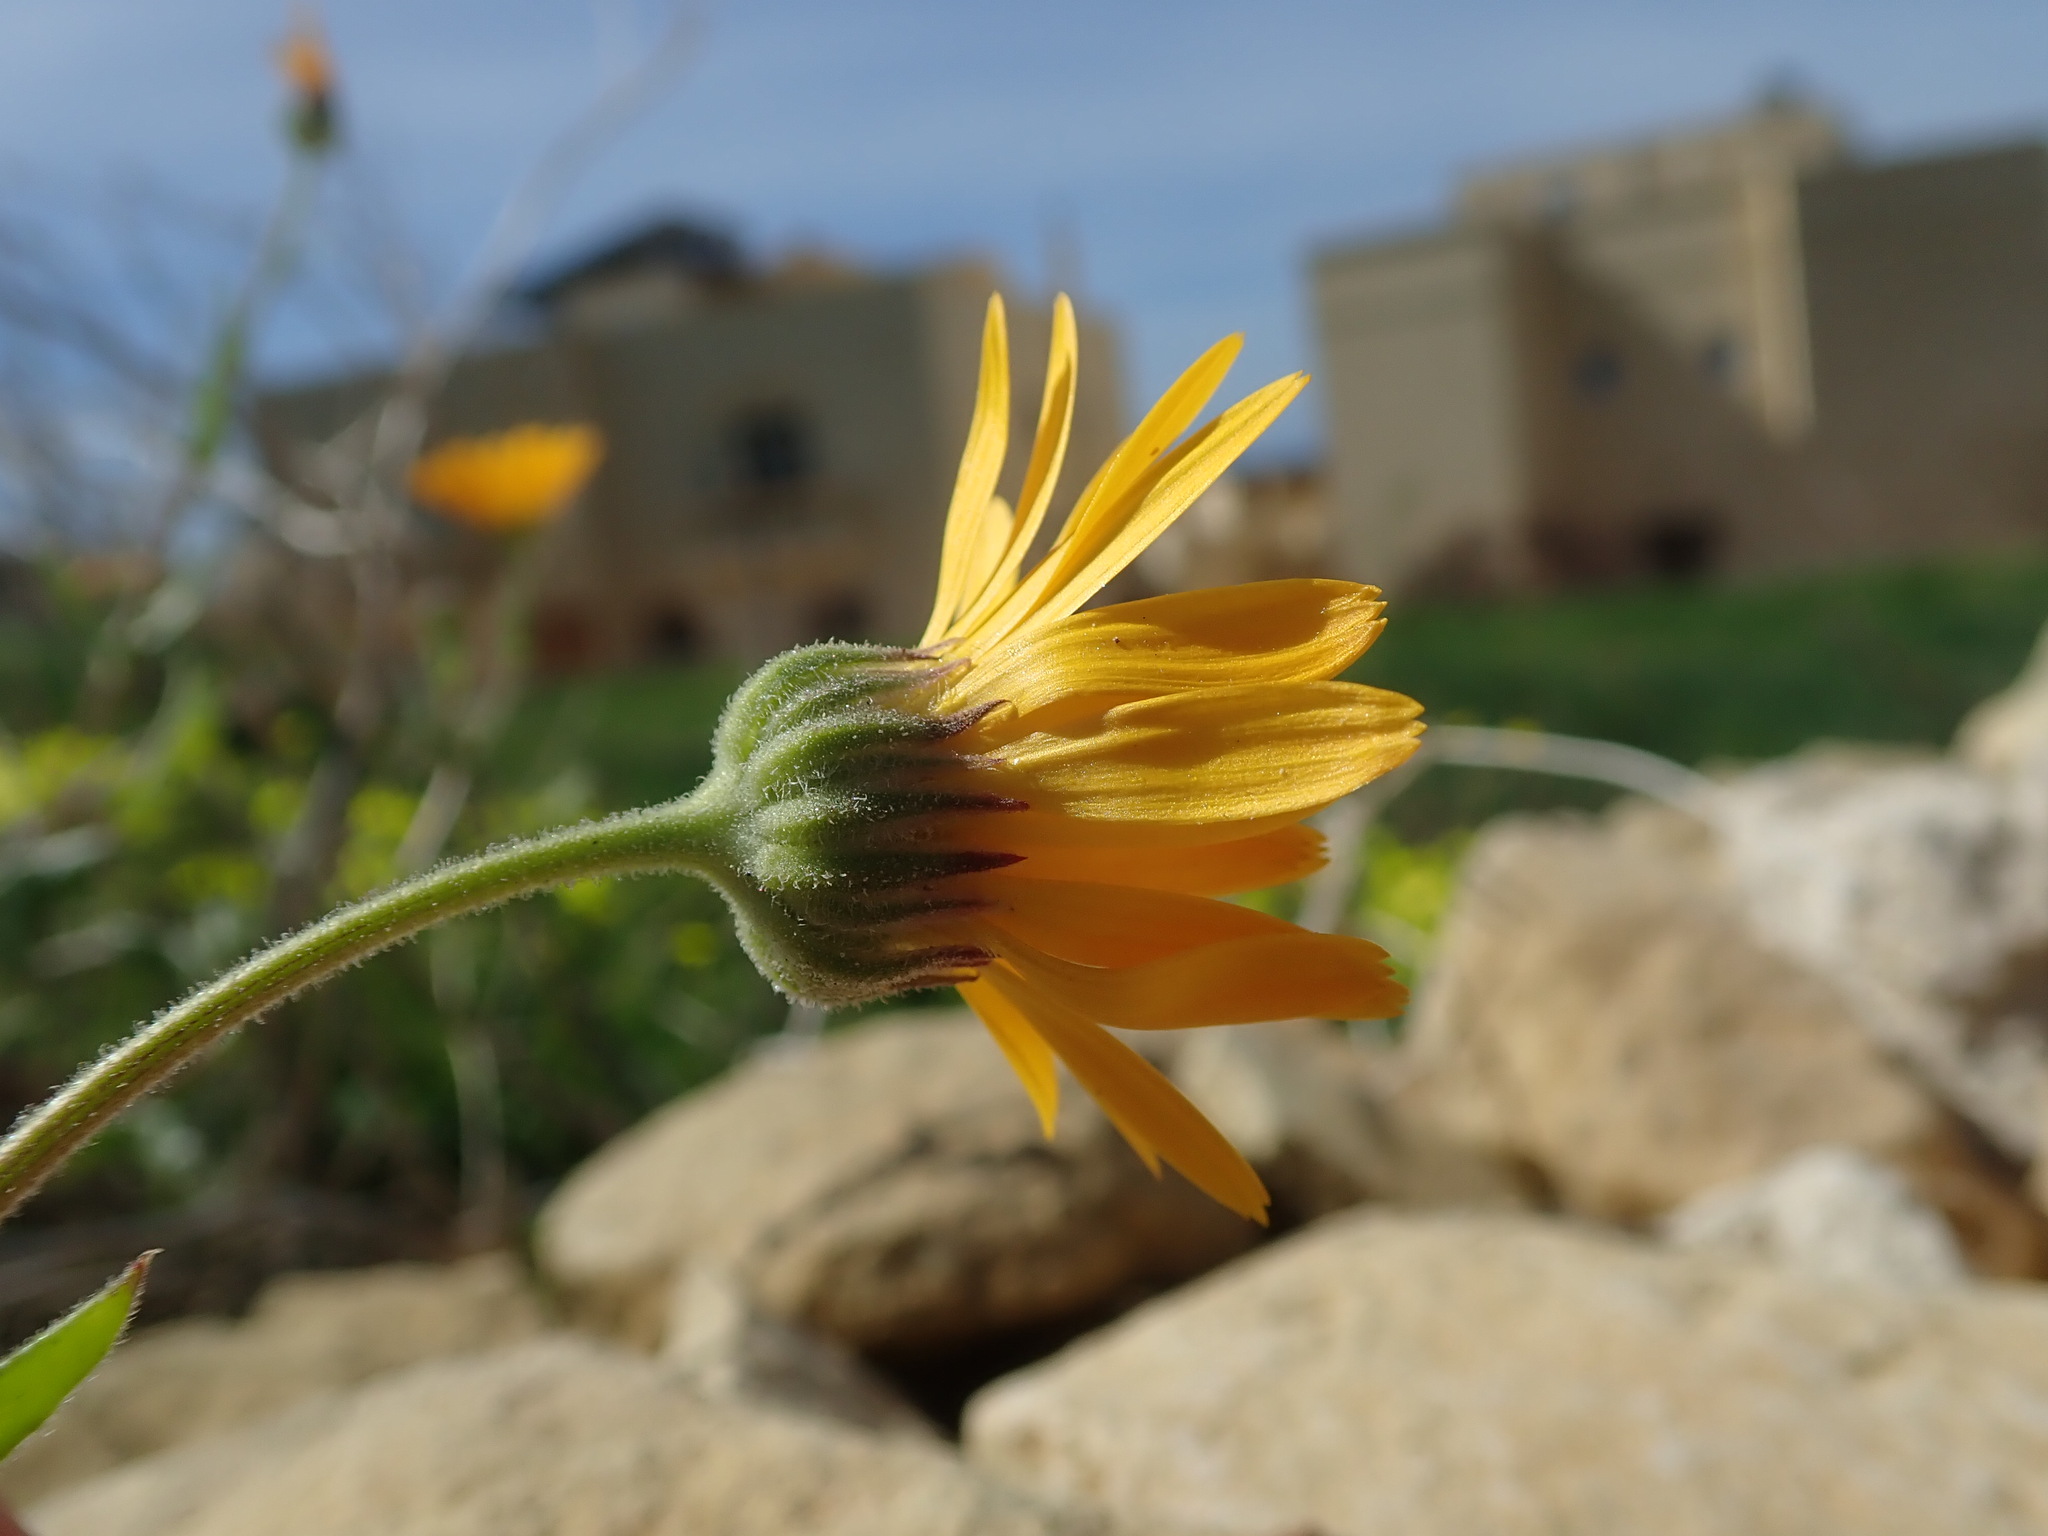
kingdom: Plantae
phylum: Tracheophyta
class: Magnoliopsida
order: Asterales
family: Asteraceae
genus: Calendula
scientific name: Calendula suffruticosa
